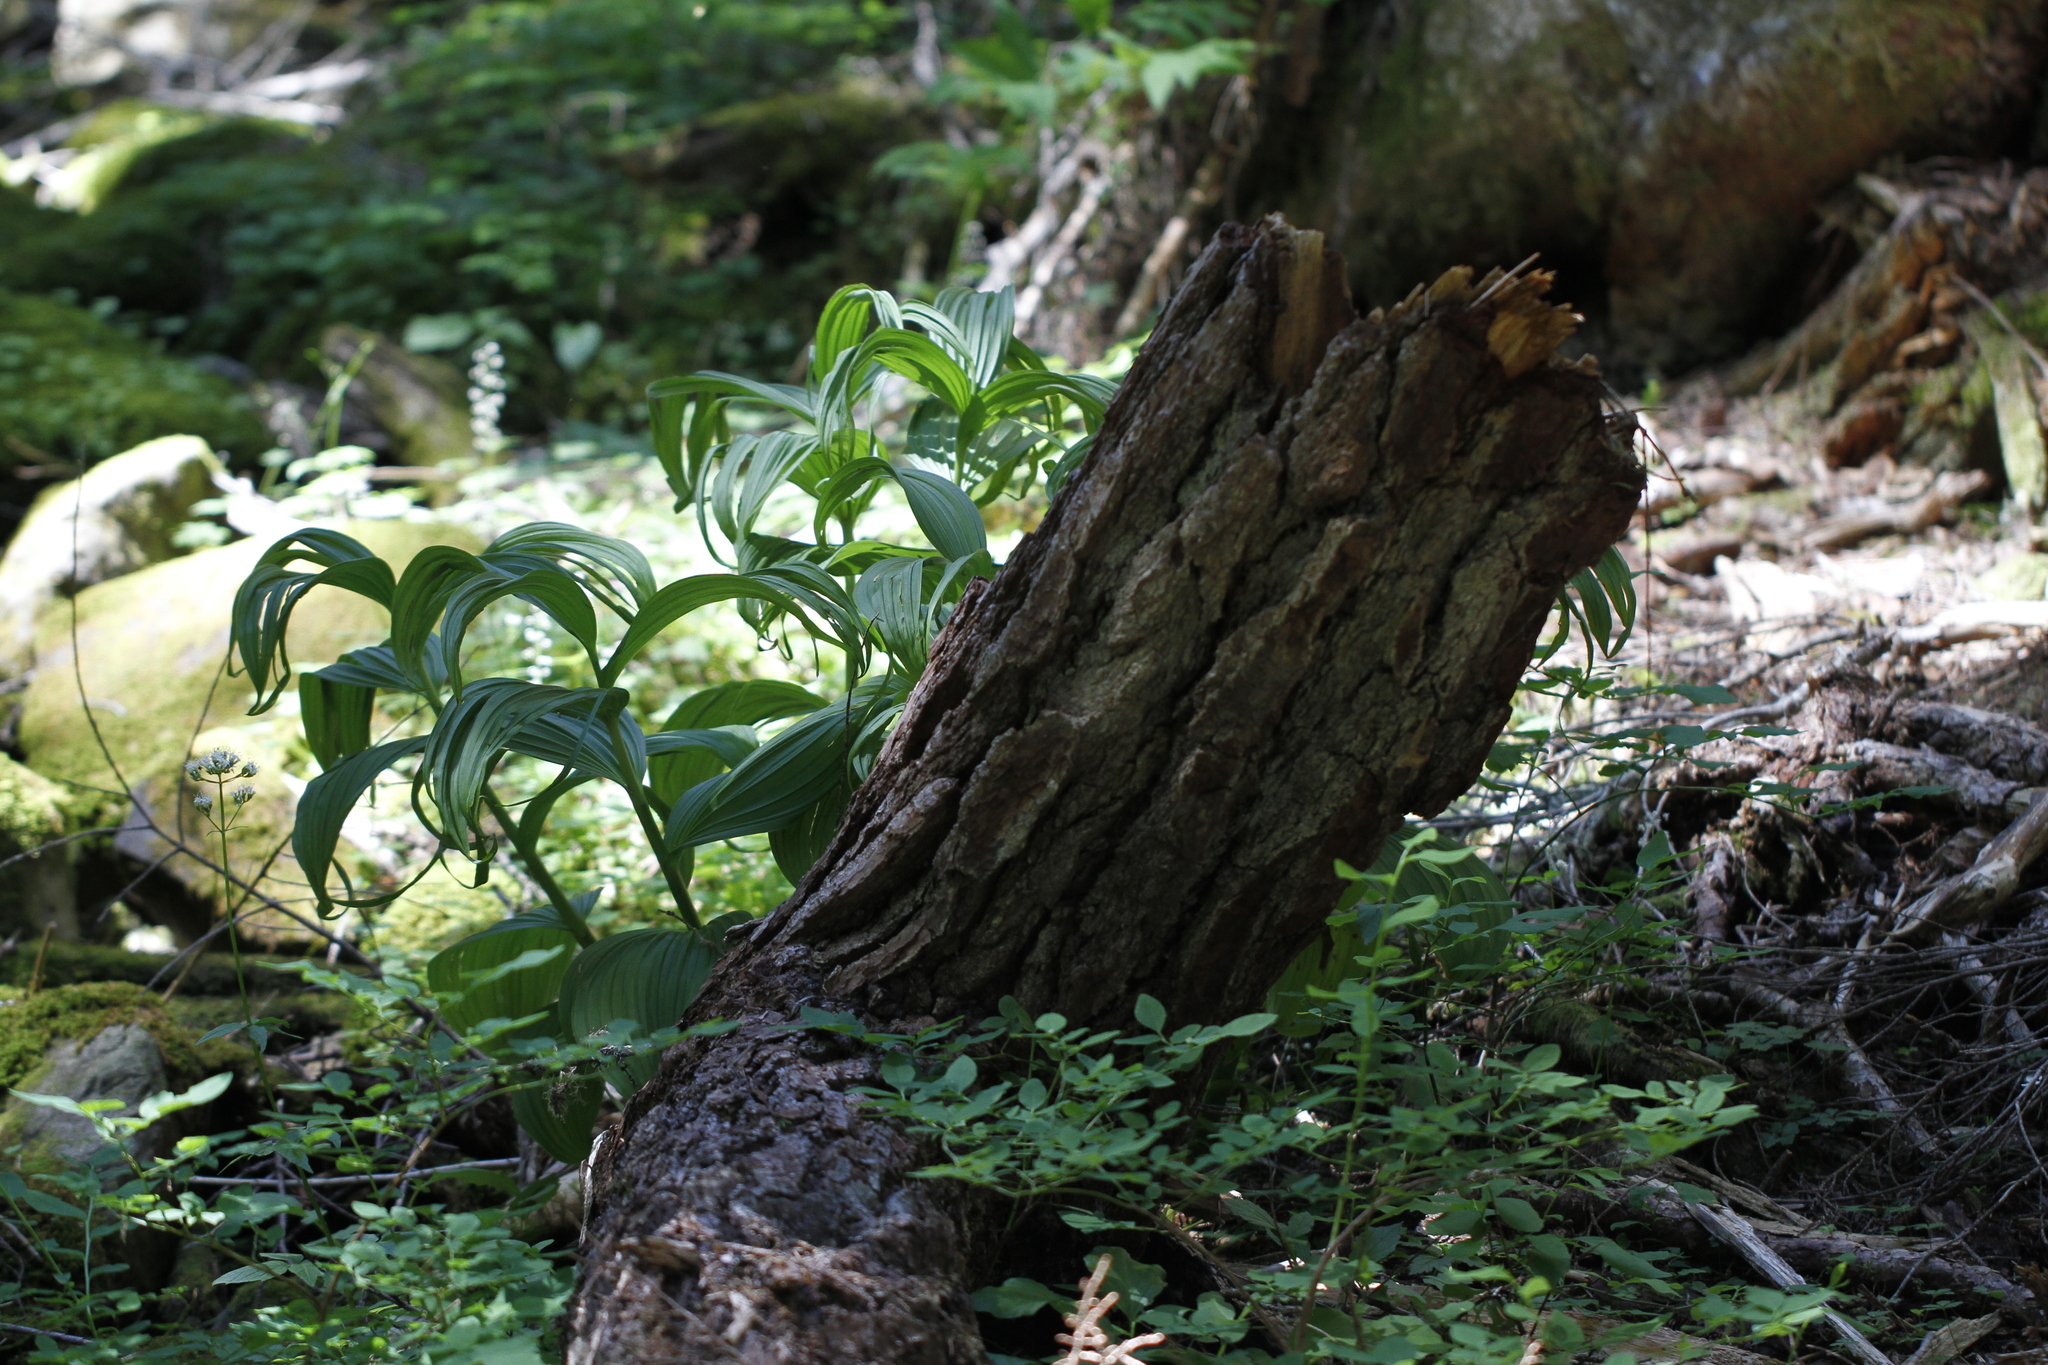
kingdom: Plantae
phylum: Tracheophyta
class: Liliopsida
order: Liliales
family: Melanthiaceae
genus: Veratrum
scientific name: Veratrum viride
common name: American false hellebore
